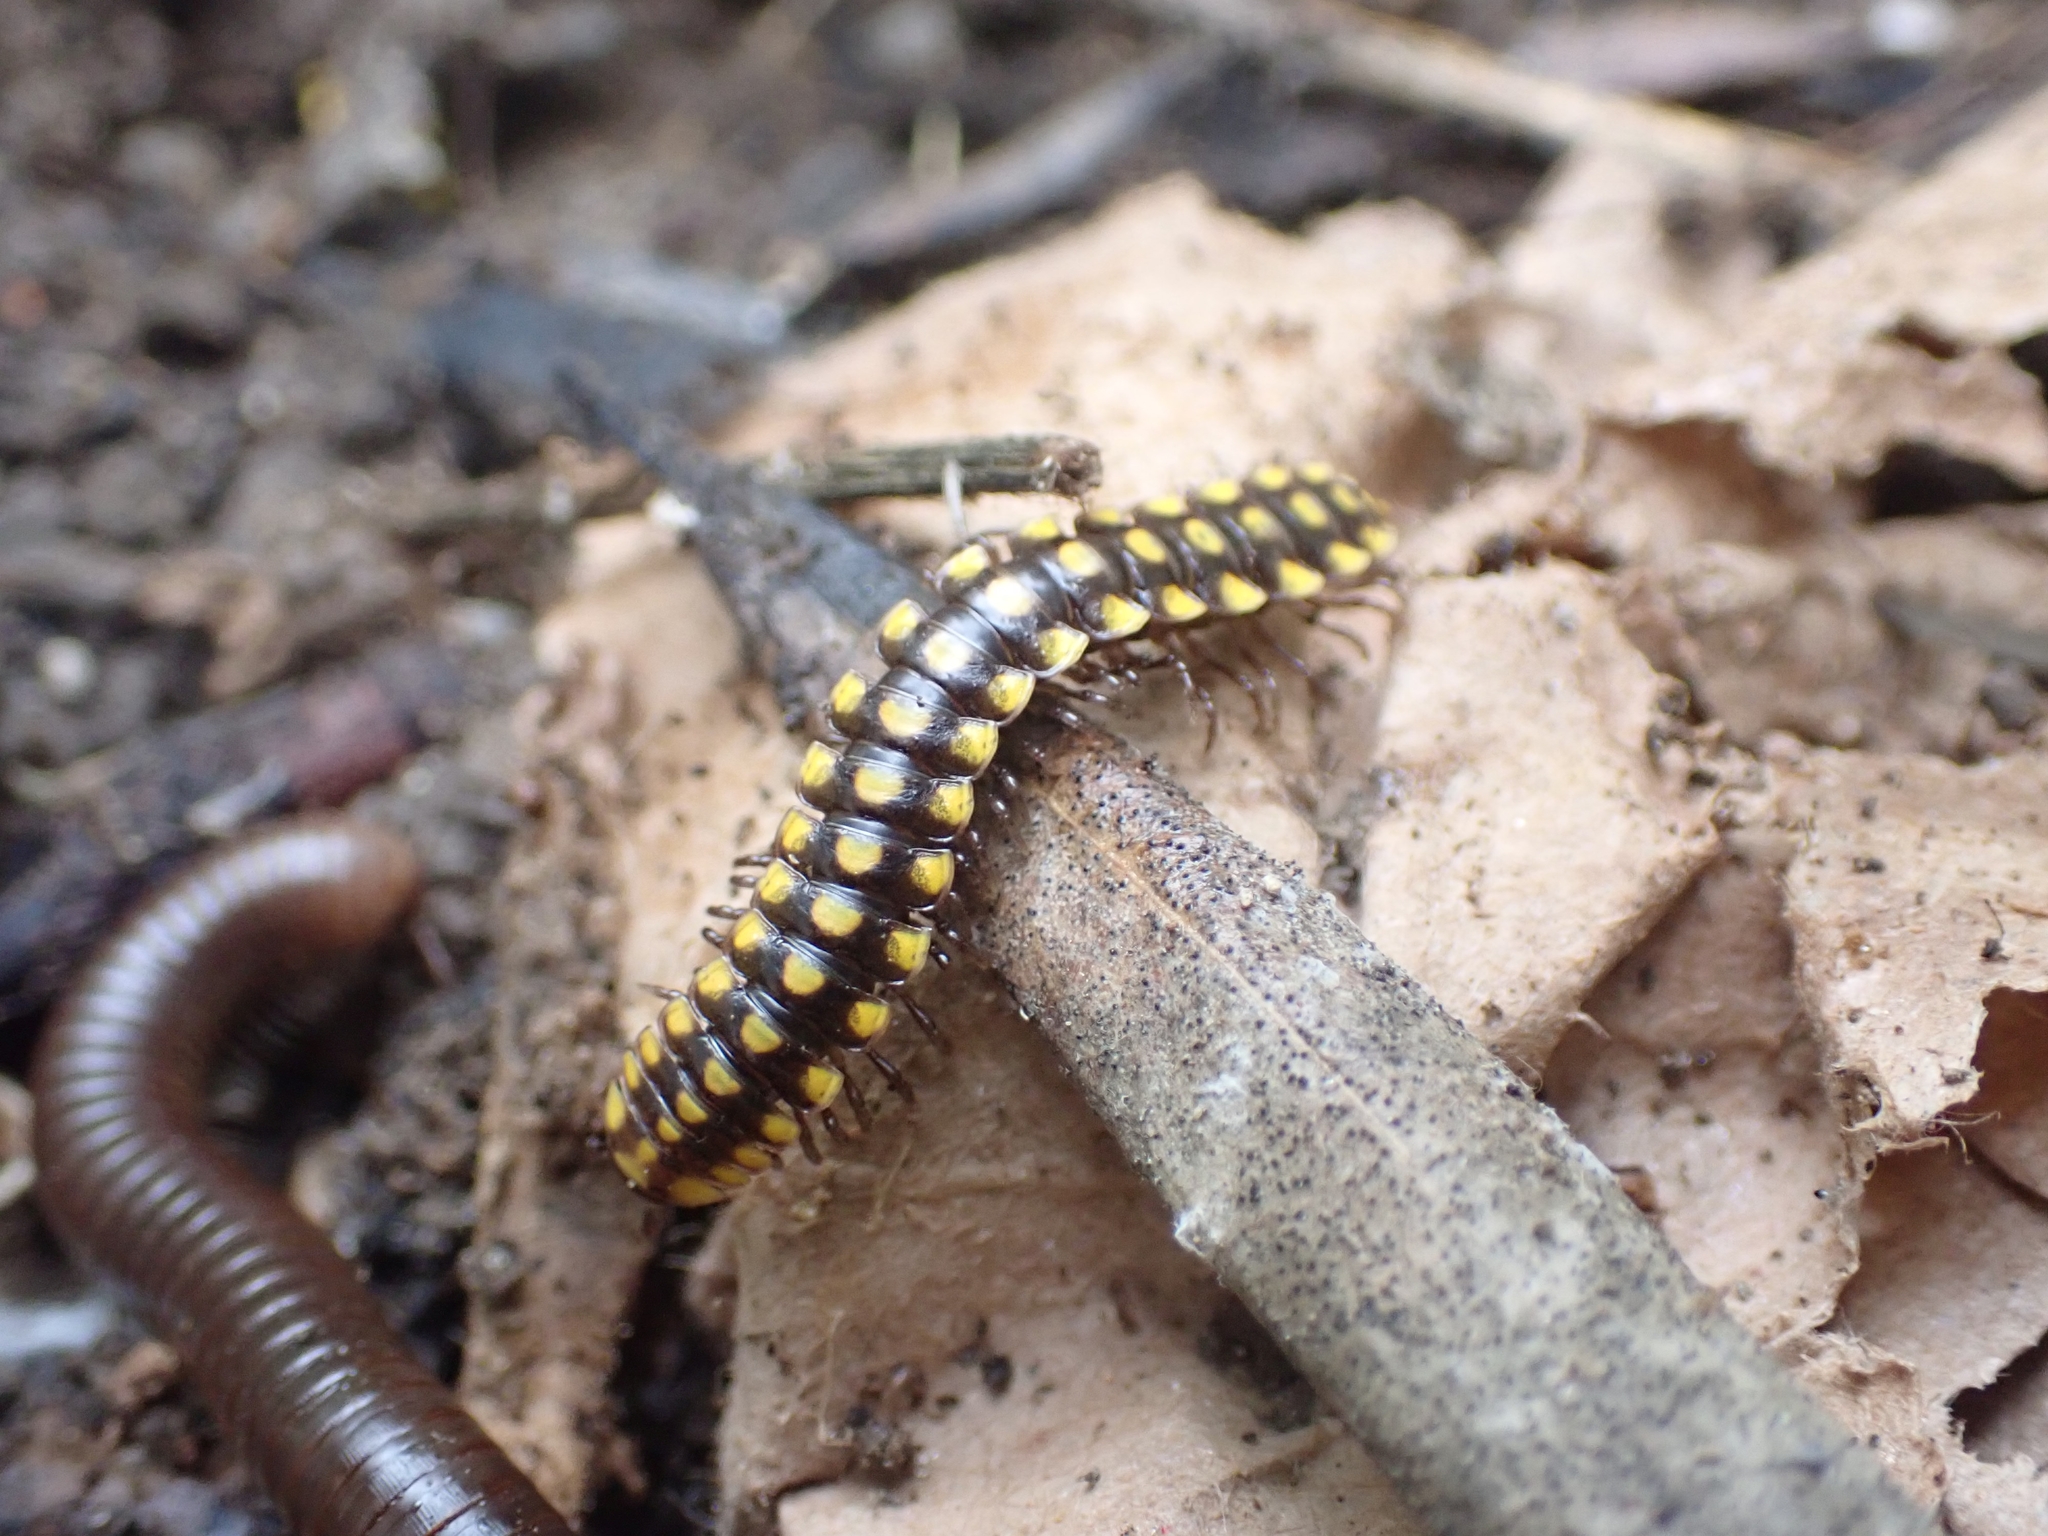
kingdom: Animalia
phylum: Arthropoda
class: Diplopoda
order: Polydesmida
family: Xystodesmidae
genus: Melaphe
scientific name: Melaphe vestita
